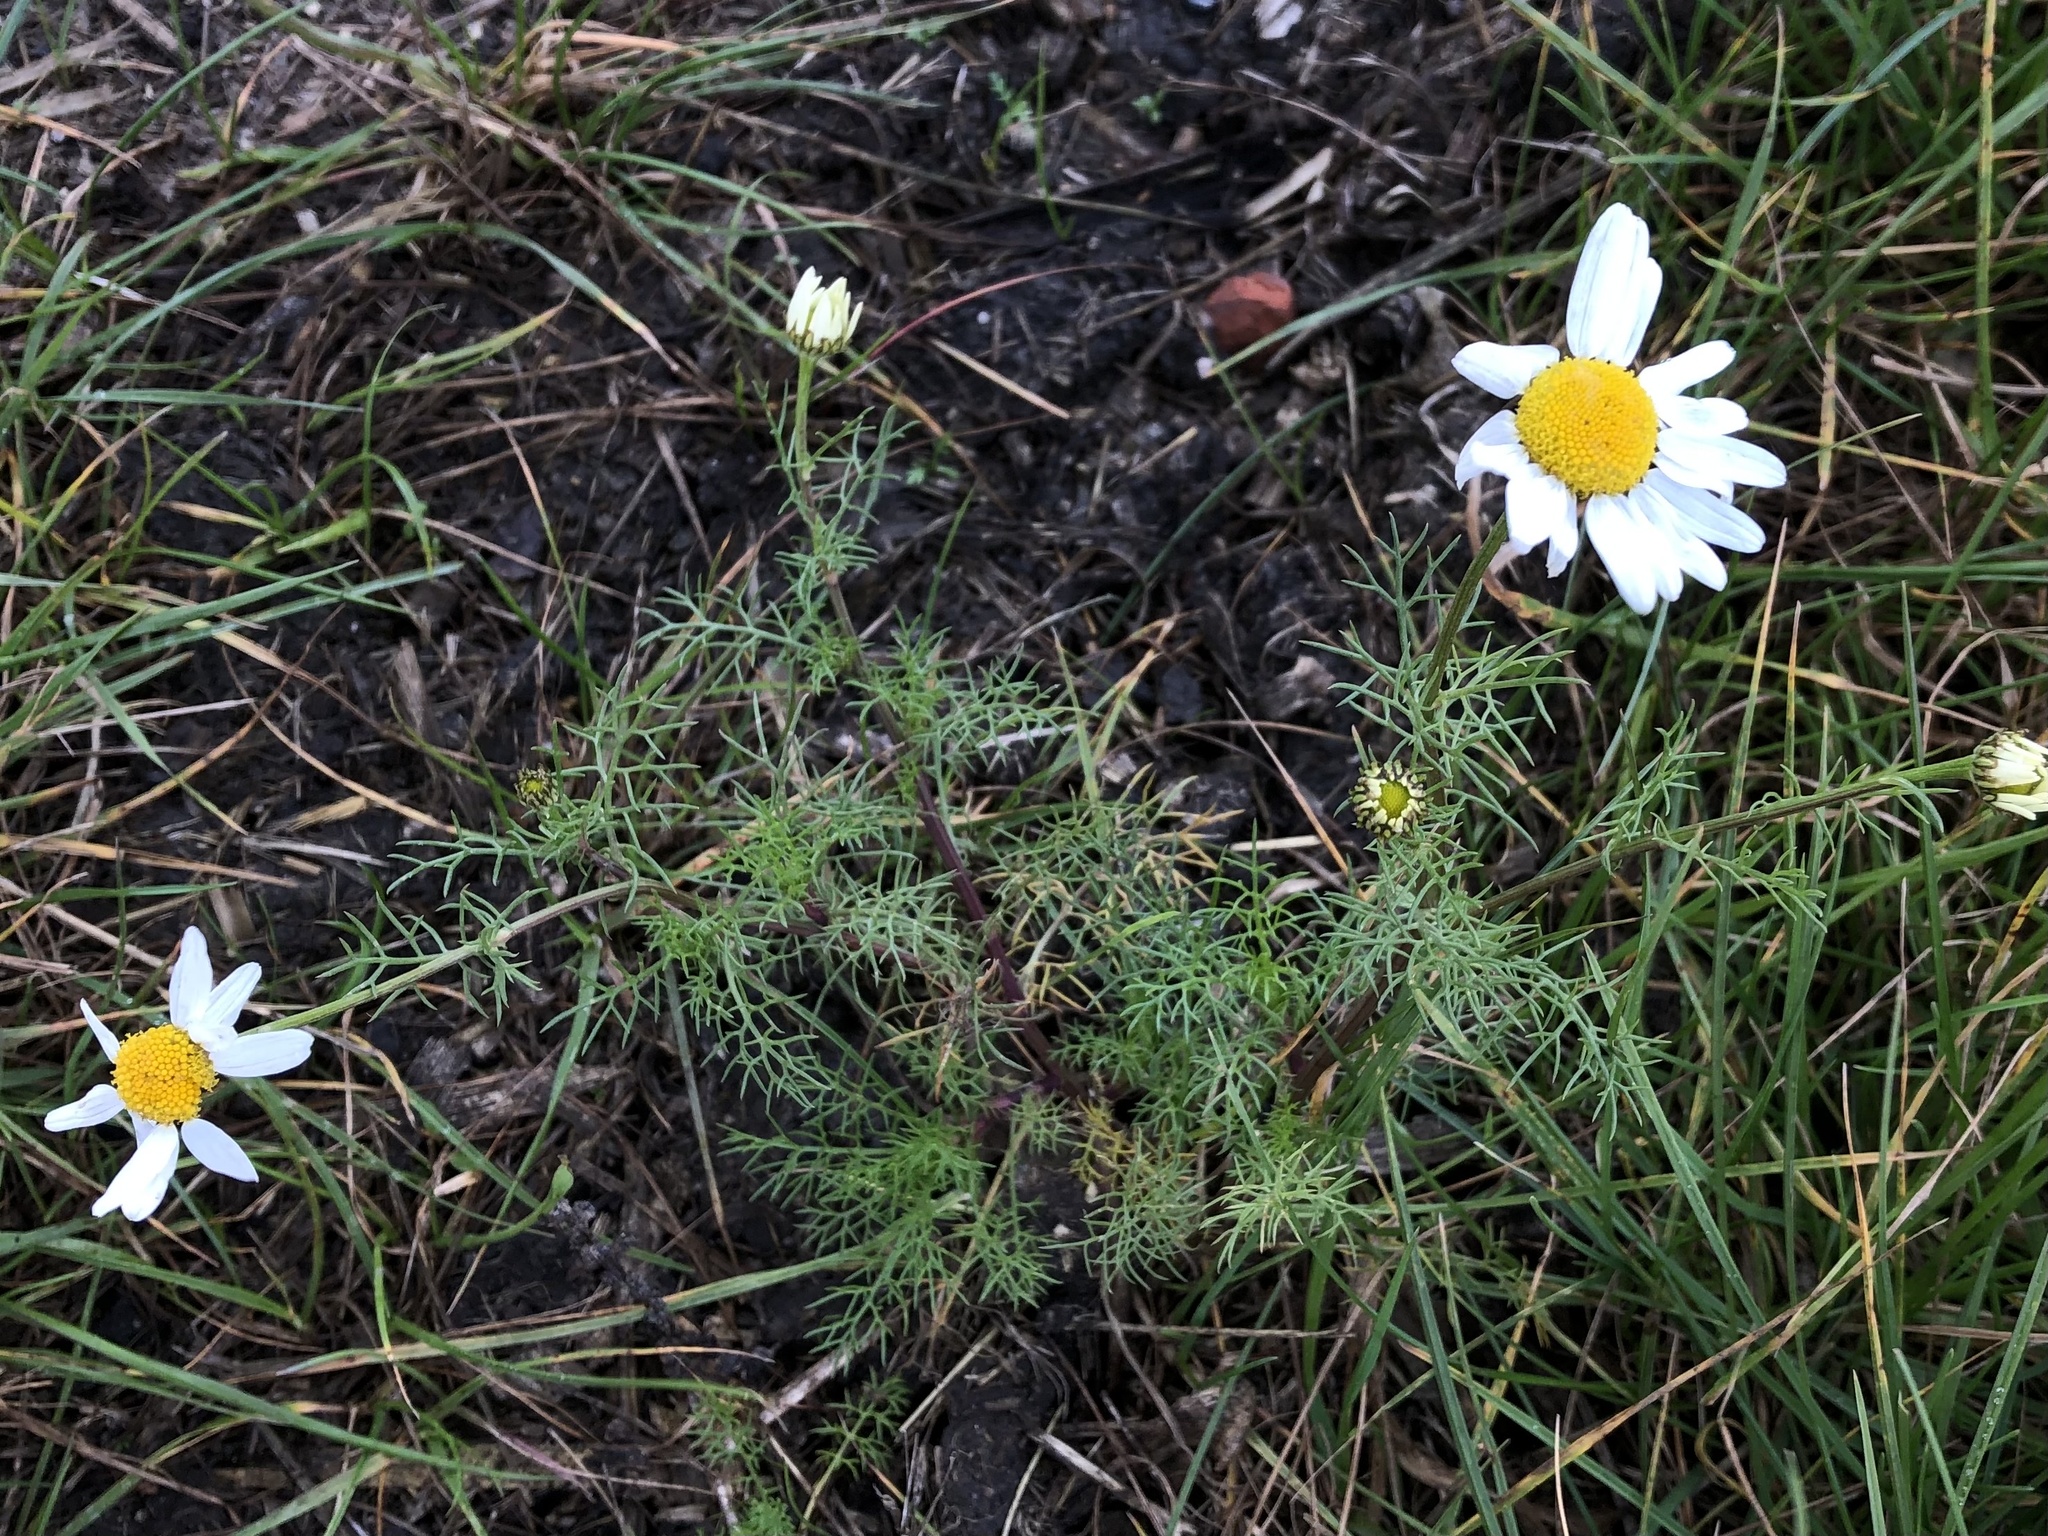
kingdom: Plantae
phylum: Tracheophyta
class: Magnoliopsida
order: Asterales
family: Asteraceae
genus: Tripleurospermum
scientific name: Tripleurospermum inodorum
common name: Scentless mayweed
